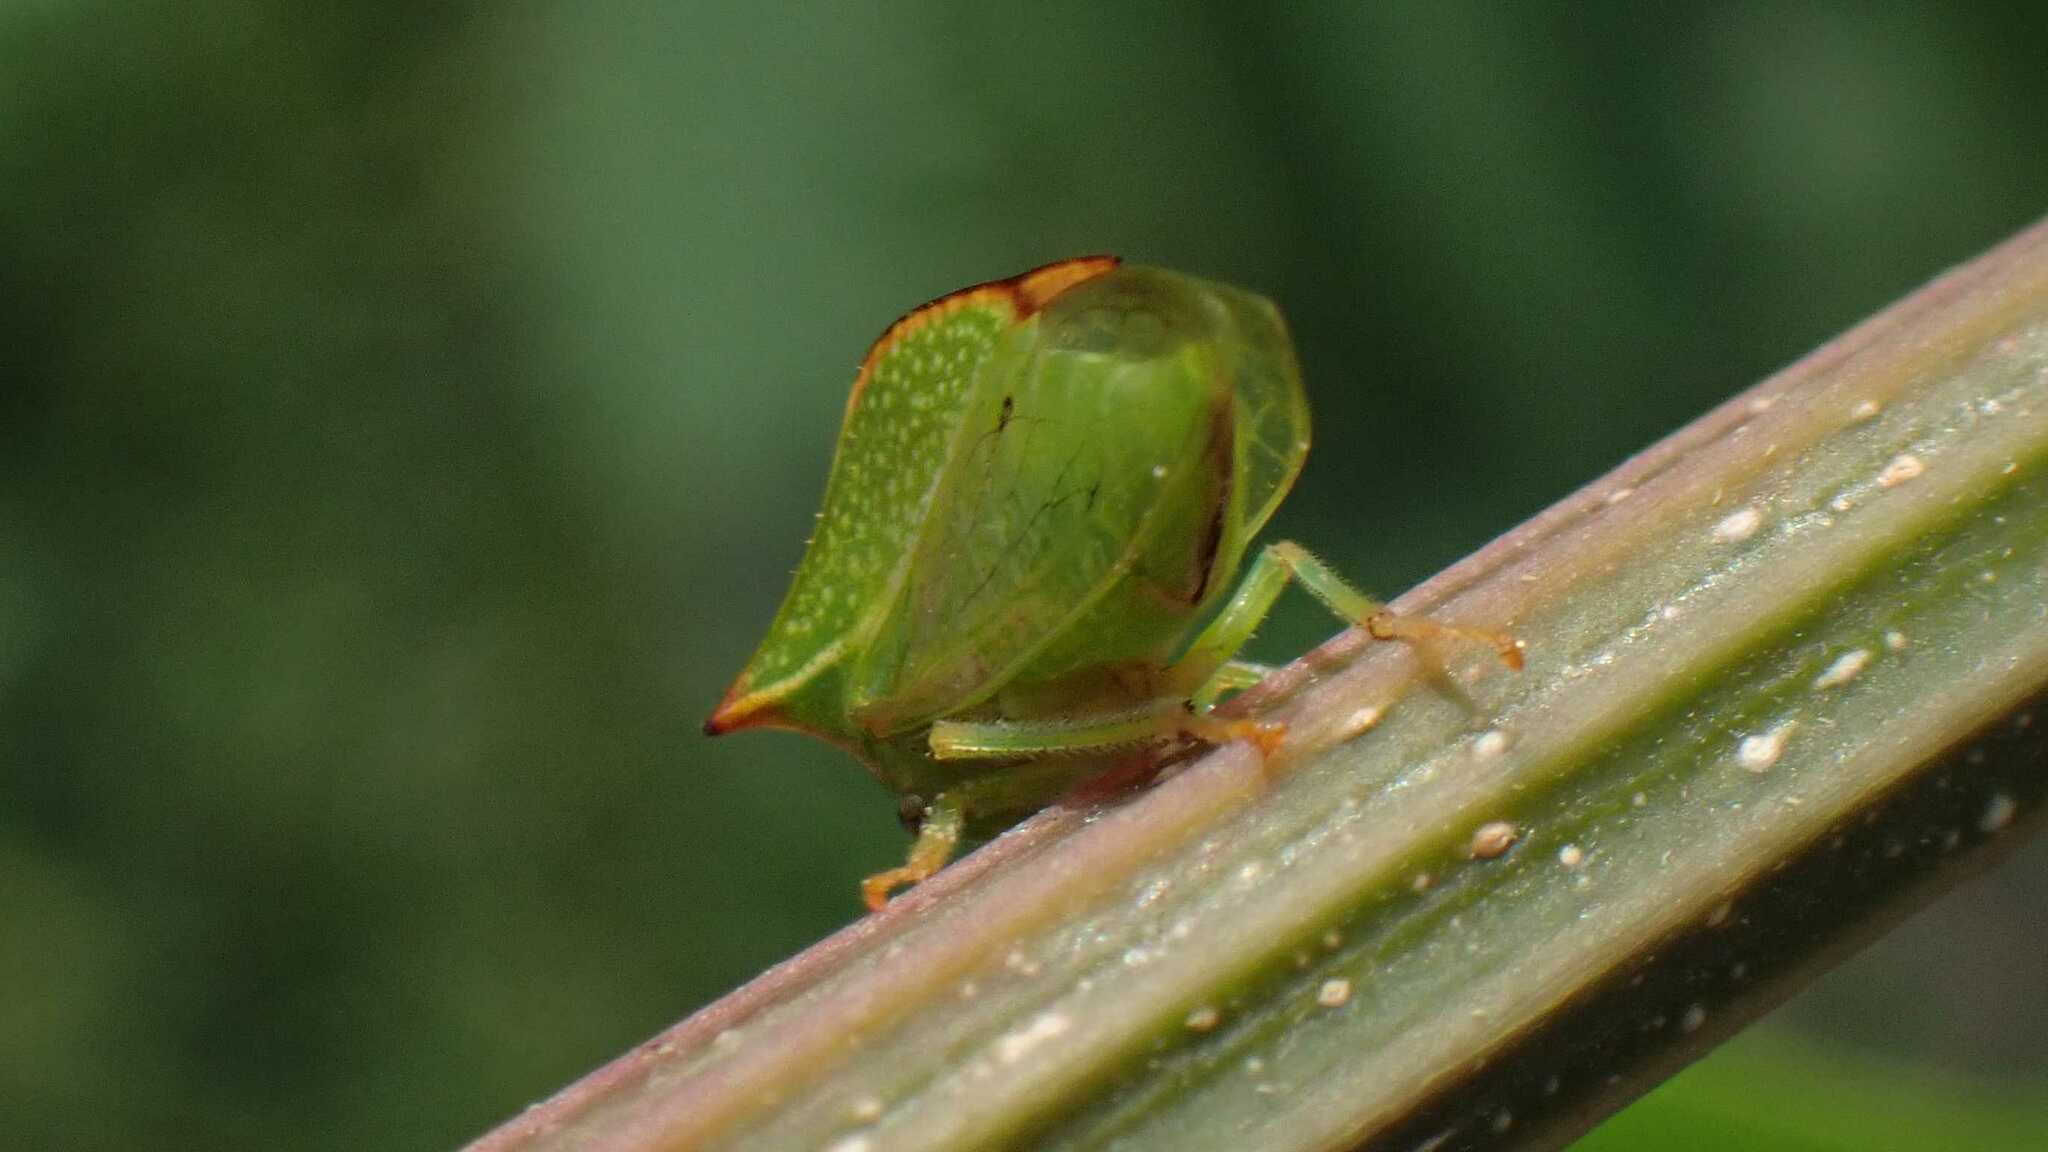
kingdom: Animalia
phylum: Arthropoda
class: Insecta
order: Hemiptera
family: Membracidae
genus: Stictocephala
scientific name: Stictocephala bisonia
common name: American buffalo treehopper
